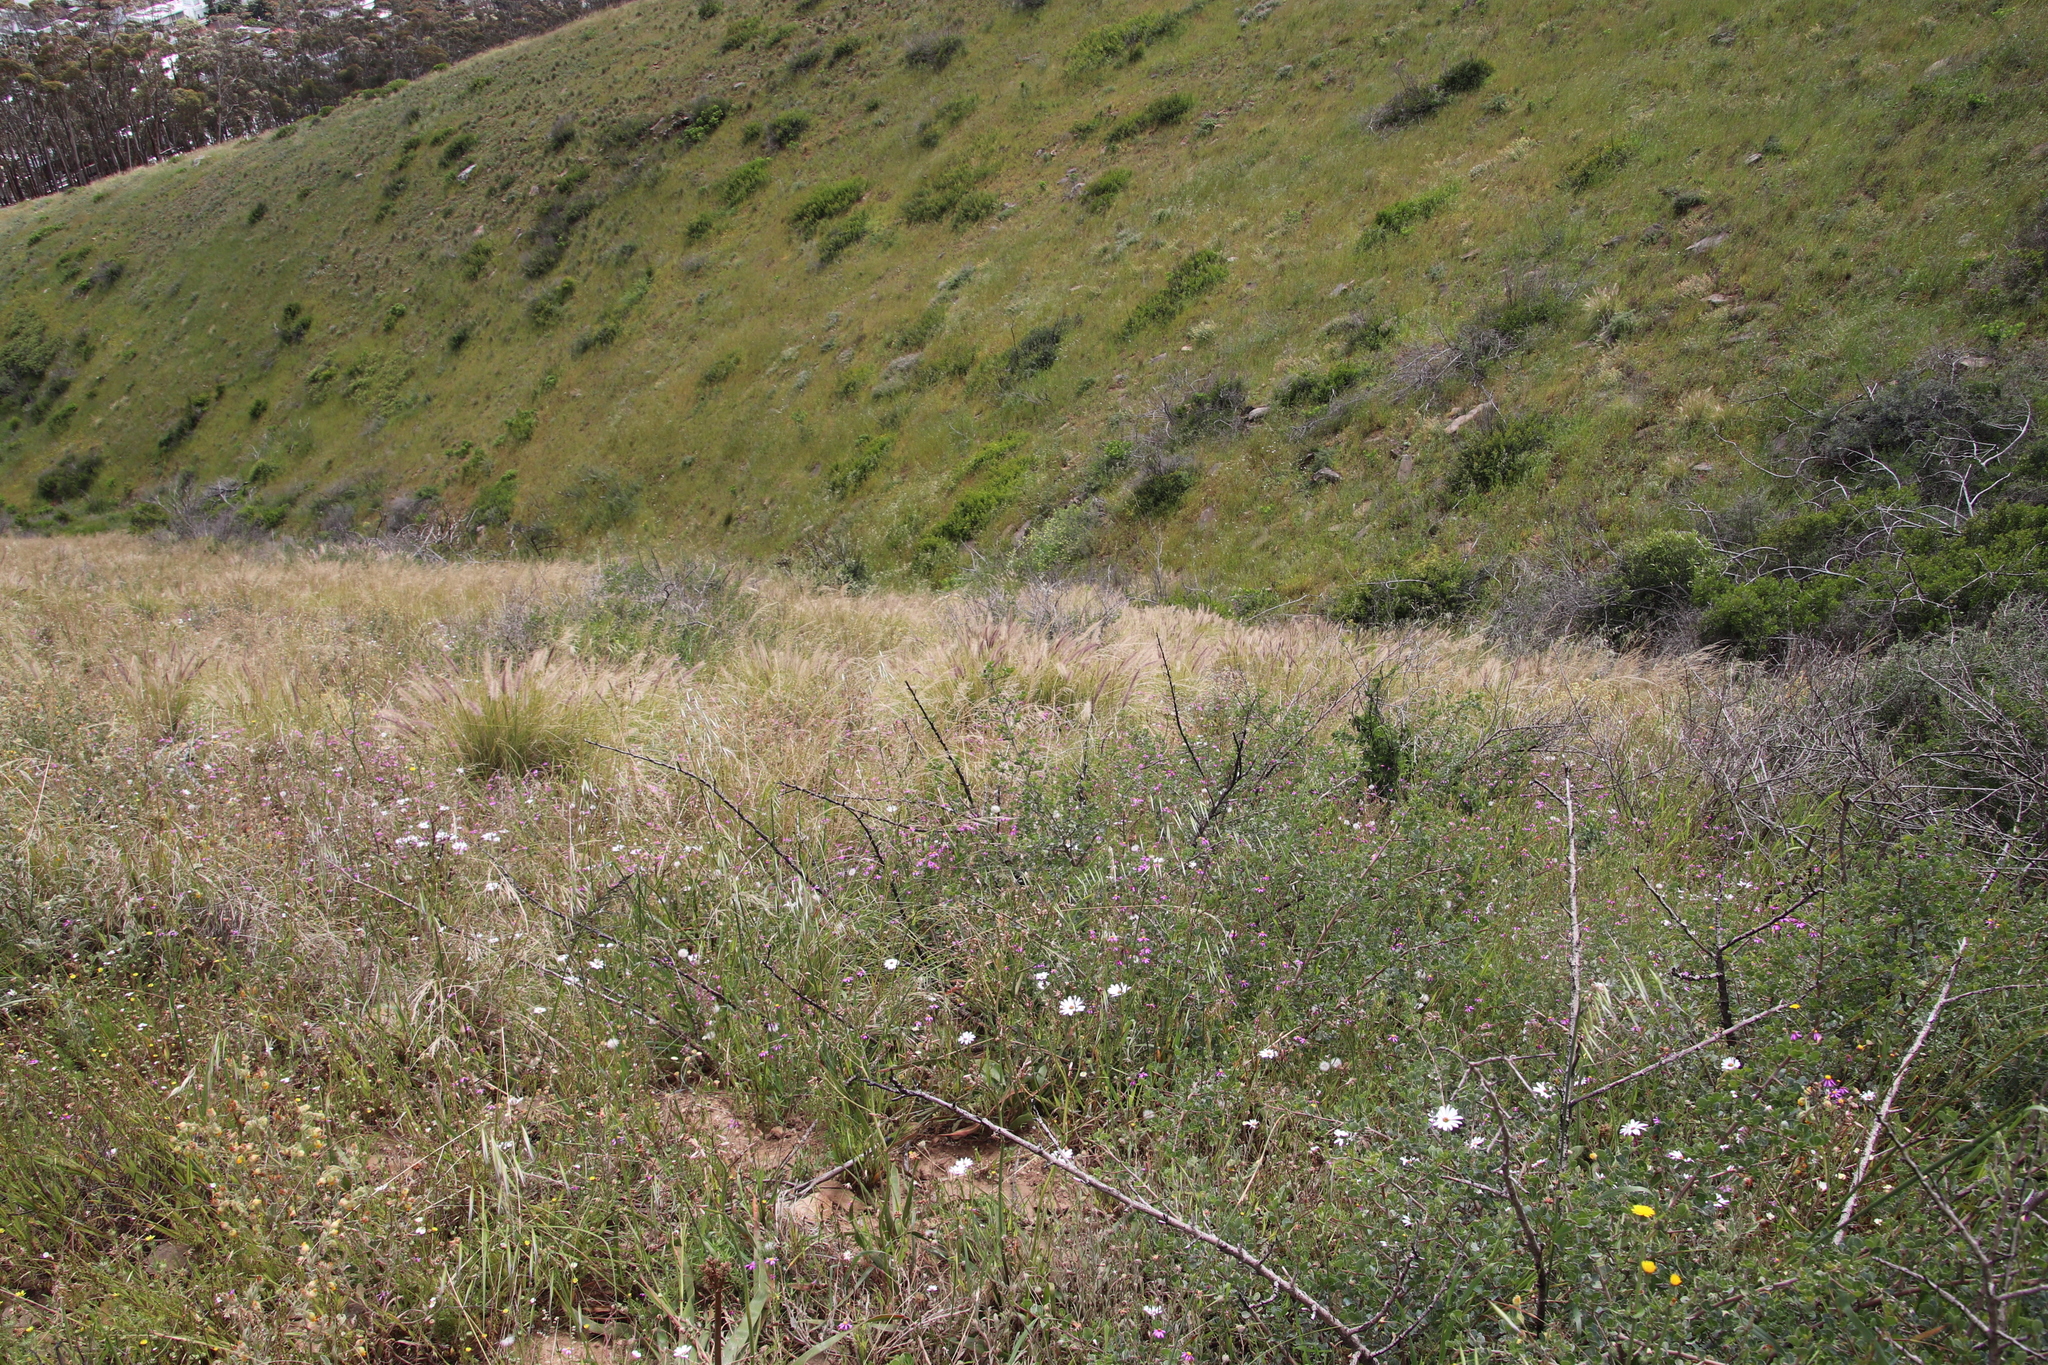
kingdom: Plantae
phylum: Tracheophyta
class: Liliopsida
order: Poales
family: Poaceae
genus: Cenchrus
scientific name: Cenchrus setaceus
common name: Crimson fountaingrass
